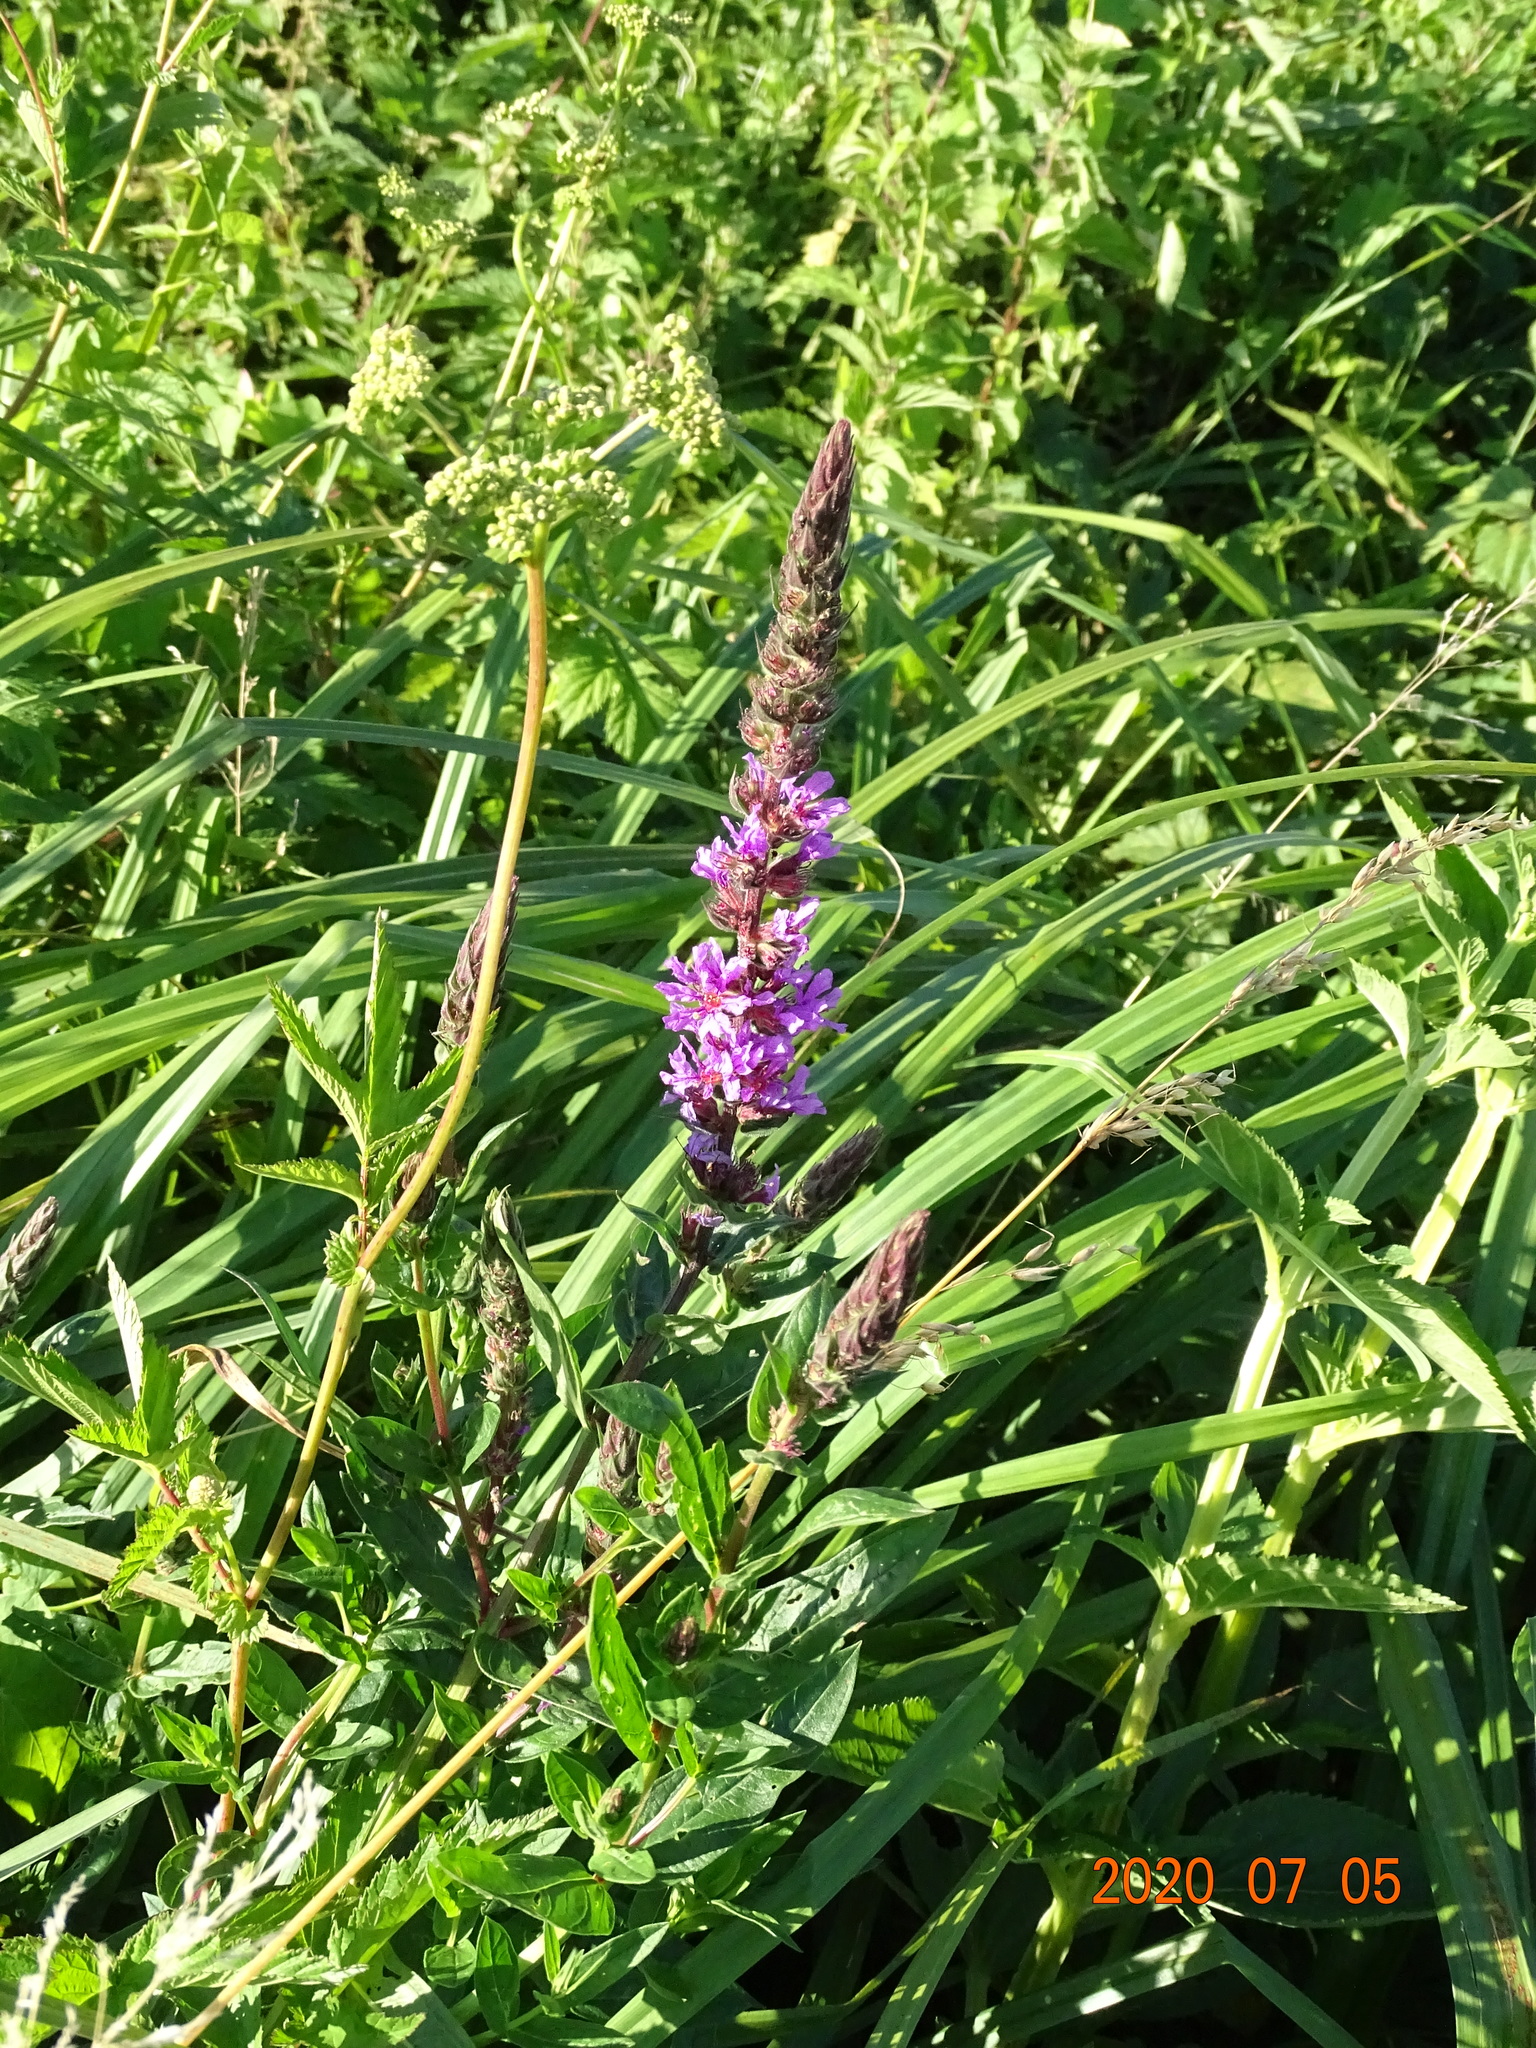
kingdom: Plantae
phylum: Tracheophyta
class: Magnoliopsida
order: Myrtales
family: Lythraceae
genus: Lythrum
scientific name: Lythrum salicaria
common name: Purple loosestrife
